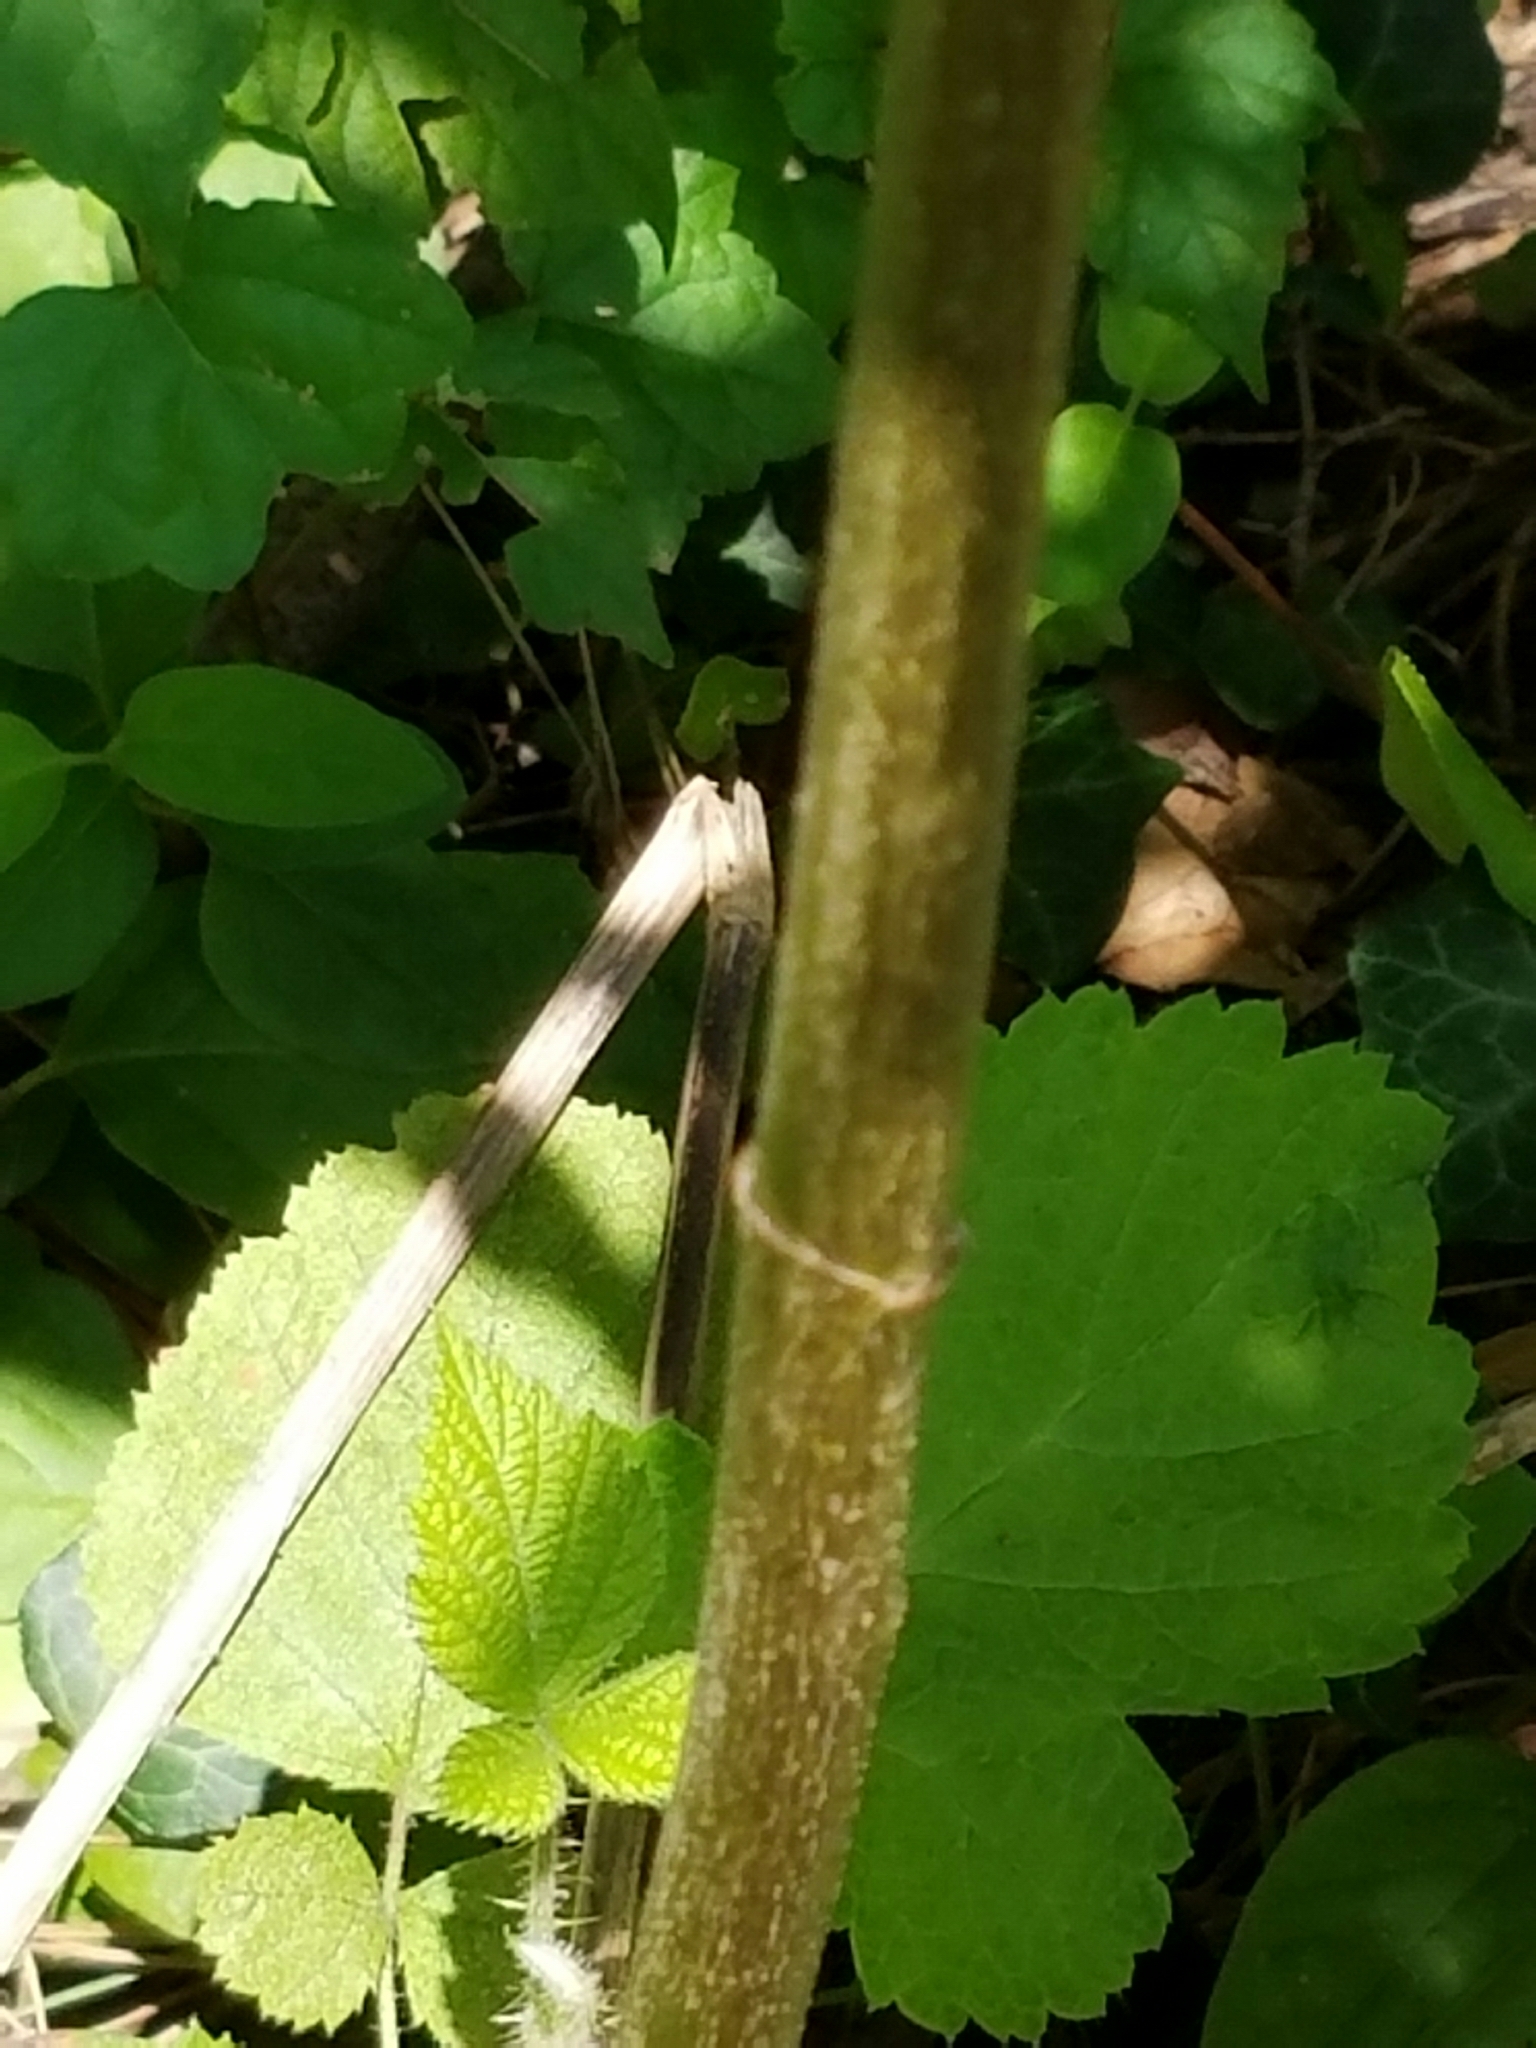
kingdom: Plantae
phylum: Tracheophyta
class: Magnoliopsida
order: Asterales
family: Asteraceae
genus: Eupatorium
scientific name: Eupatorium serotinum
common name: Late boneset
